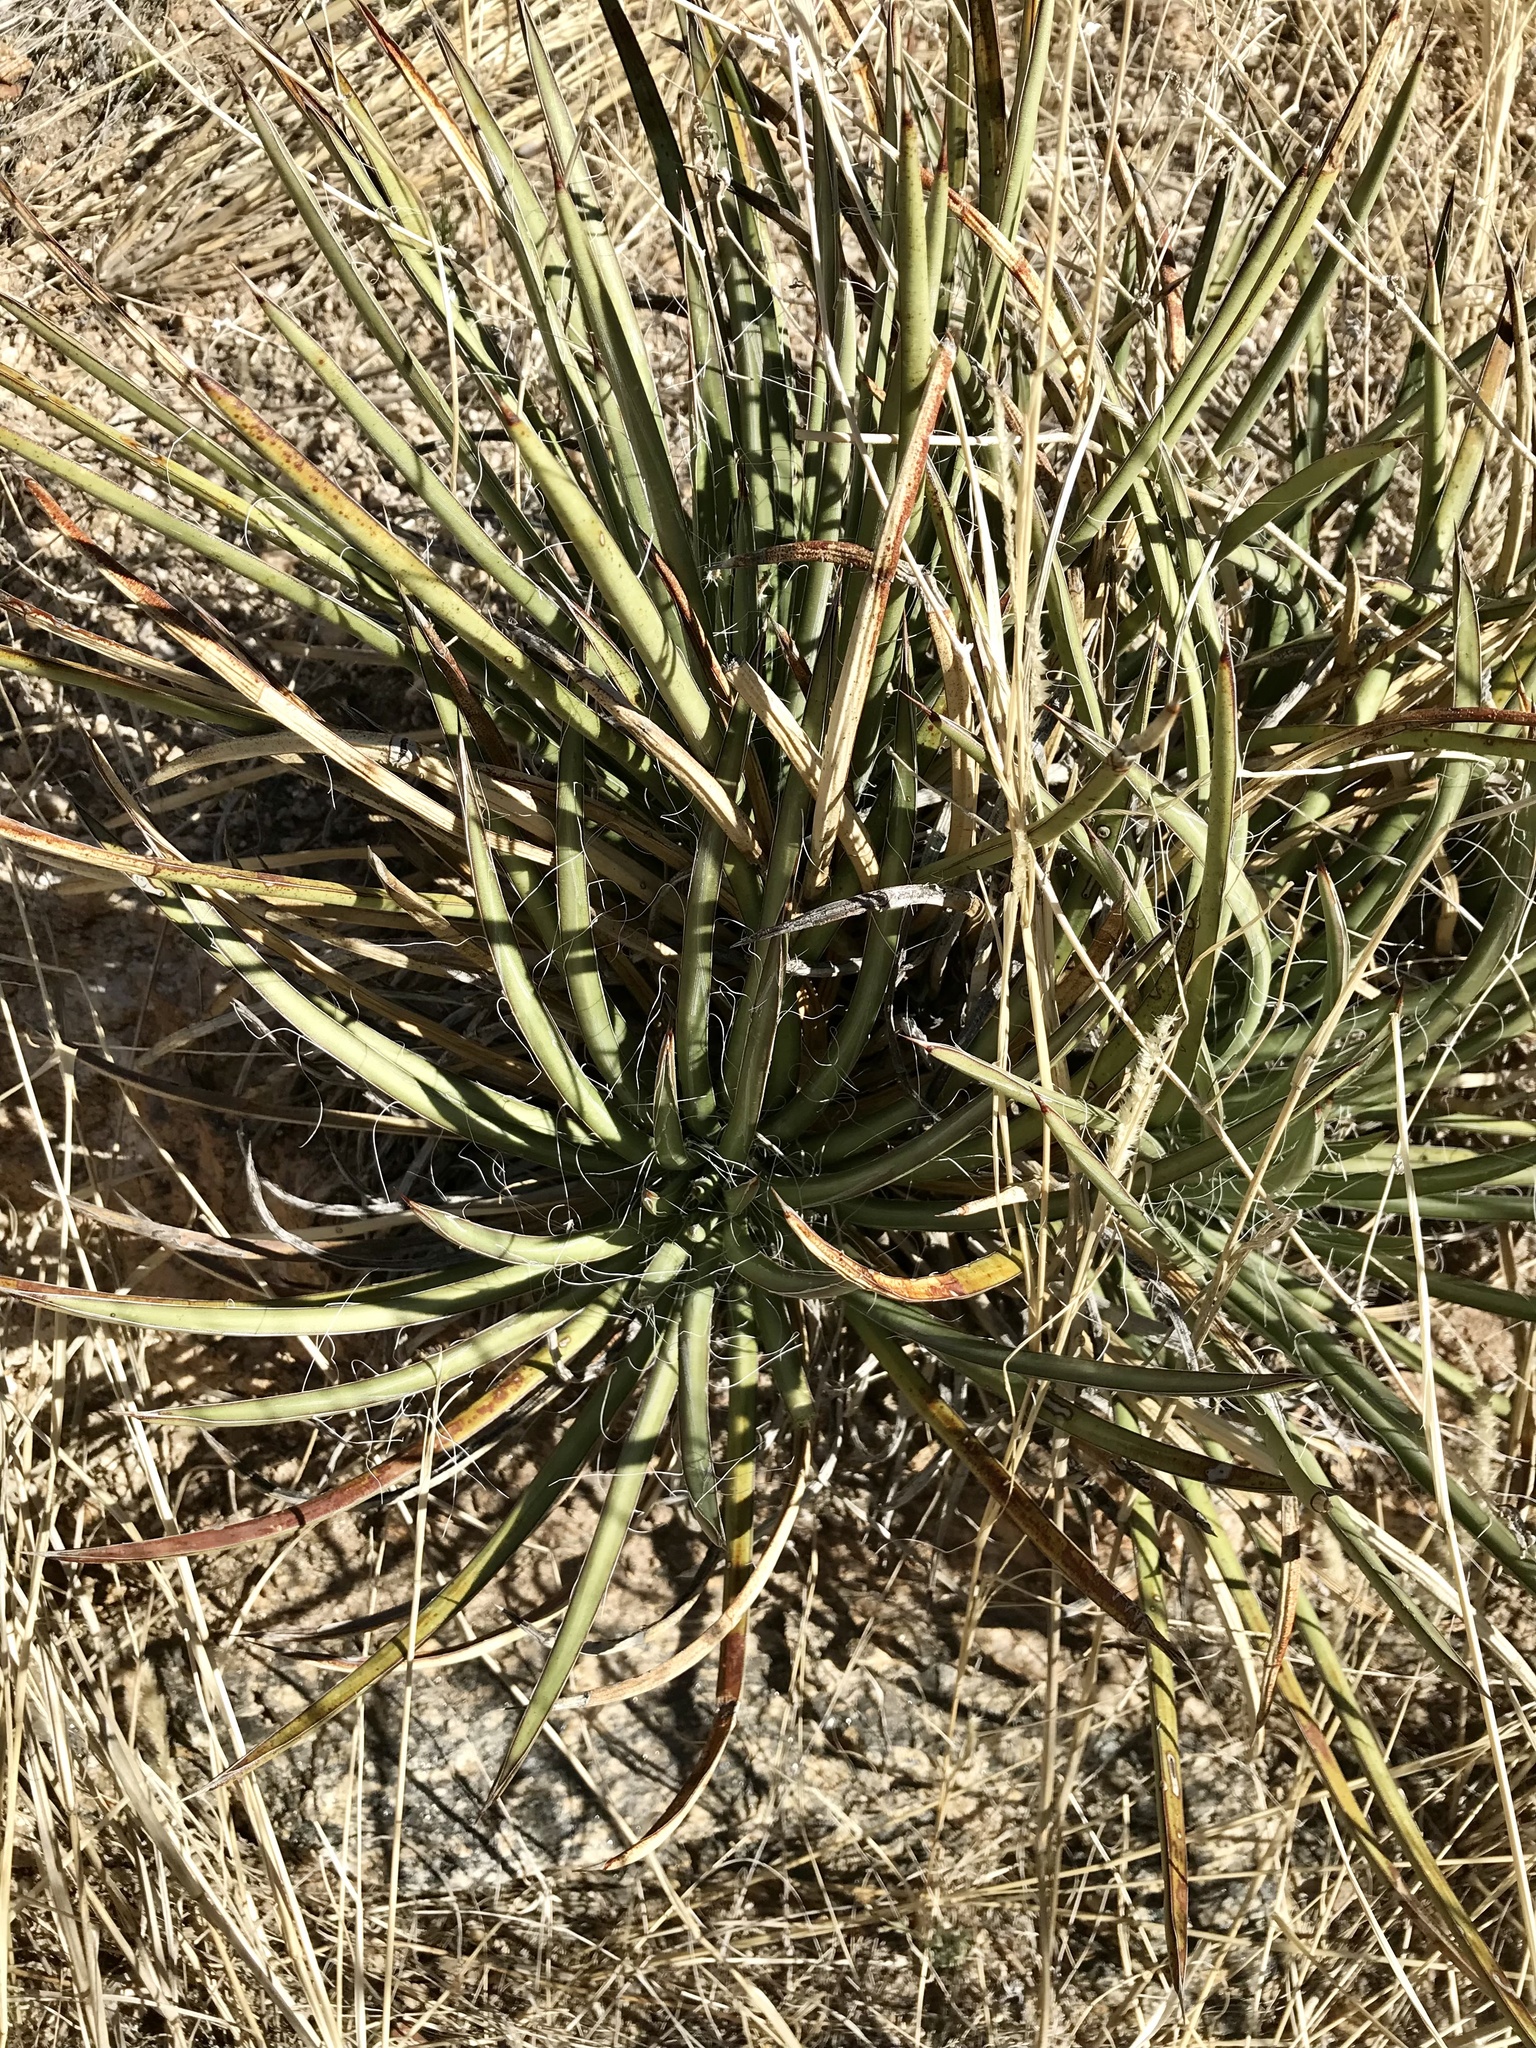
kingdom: Plantae
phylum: Tracheophyta
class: Liliopsida
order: Asparagales
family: Asparagaceae
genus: Agave
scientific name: Agave schottii
